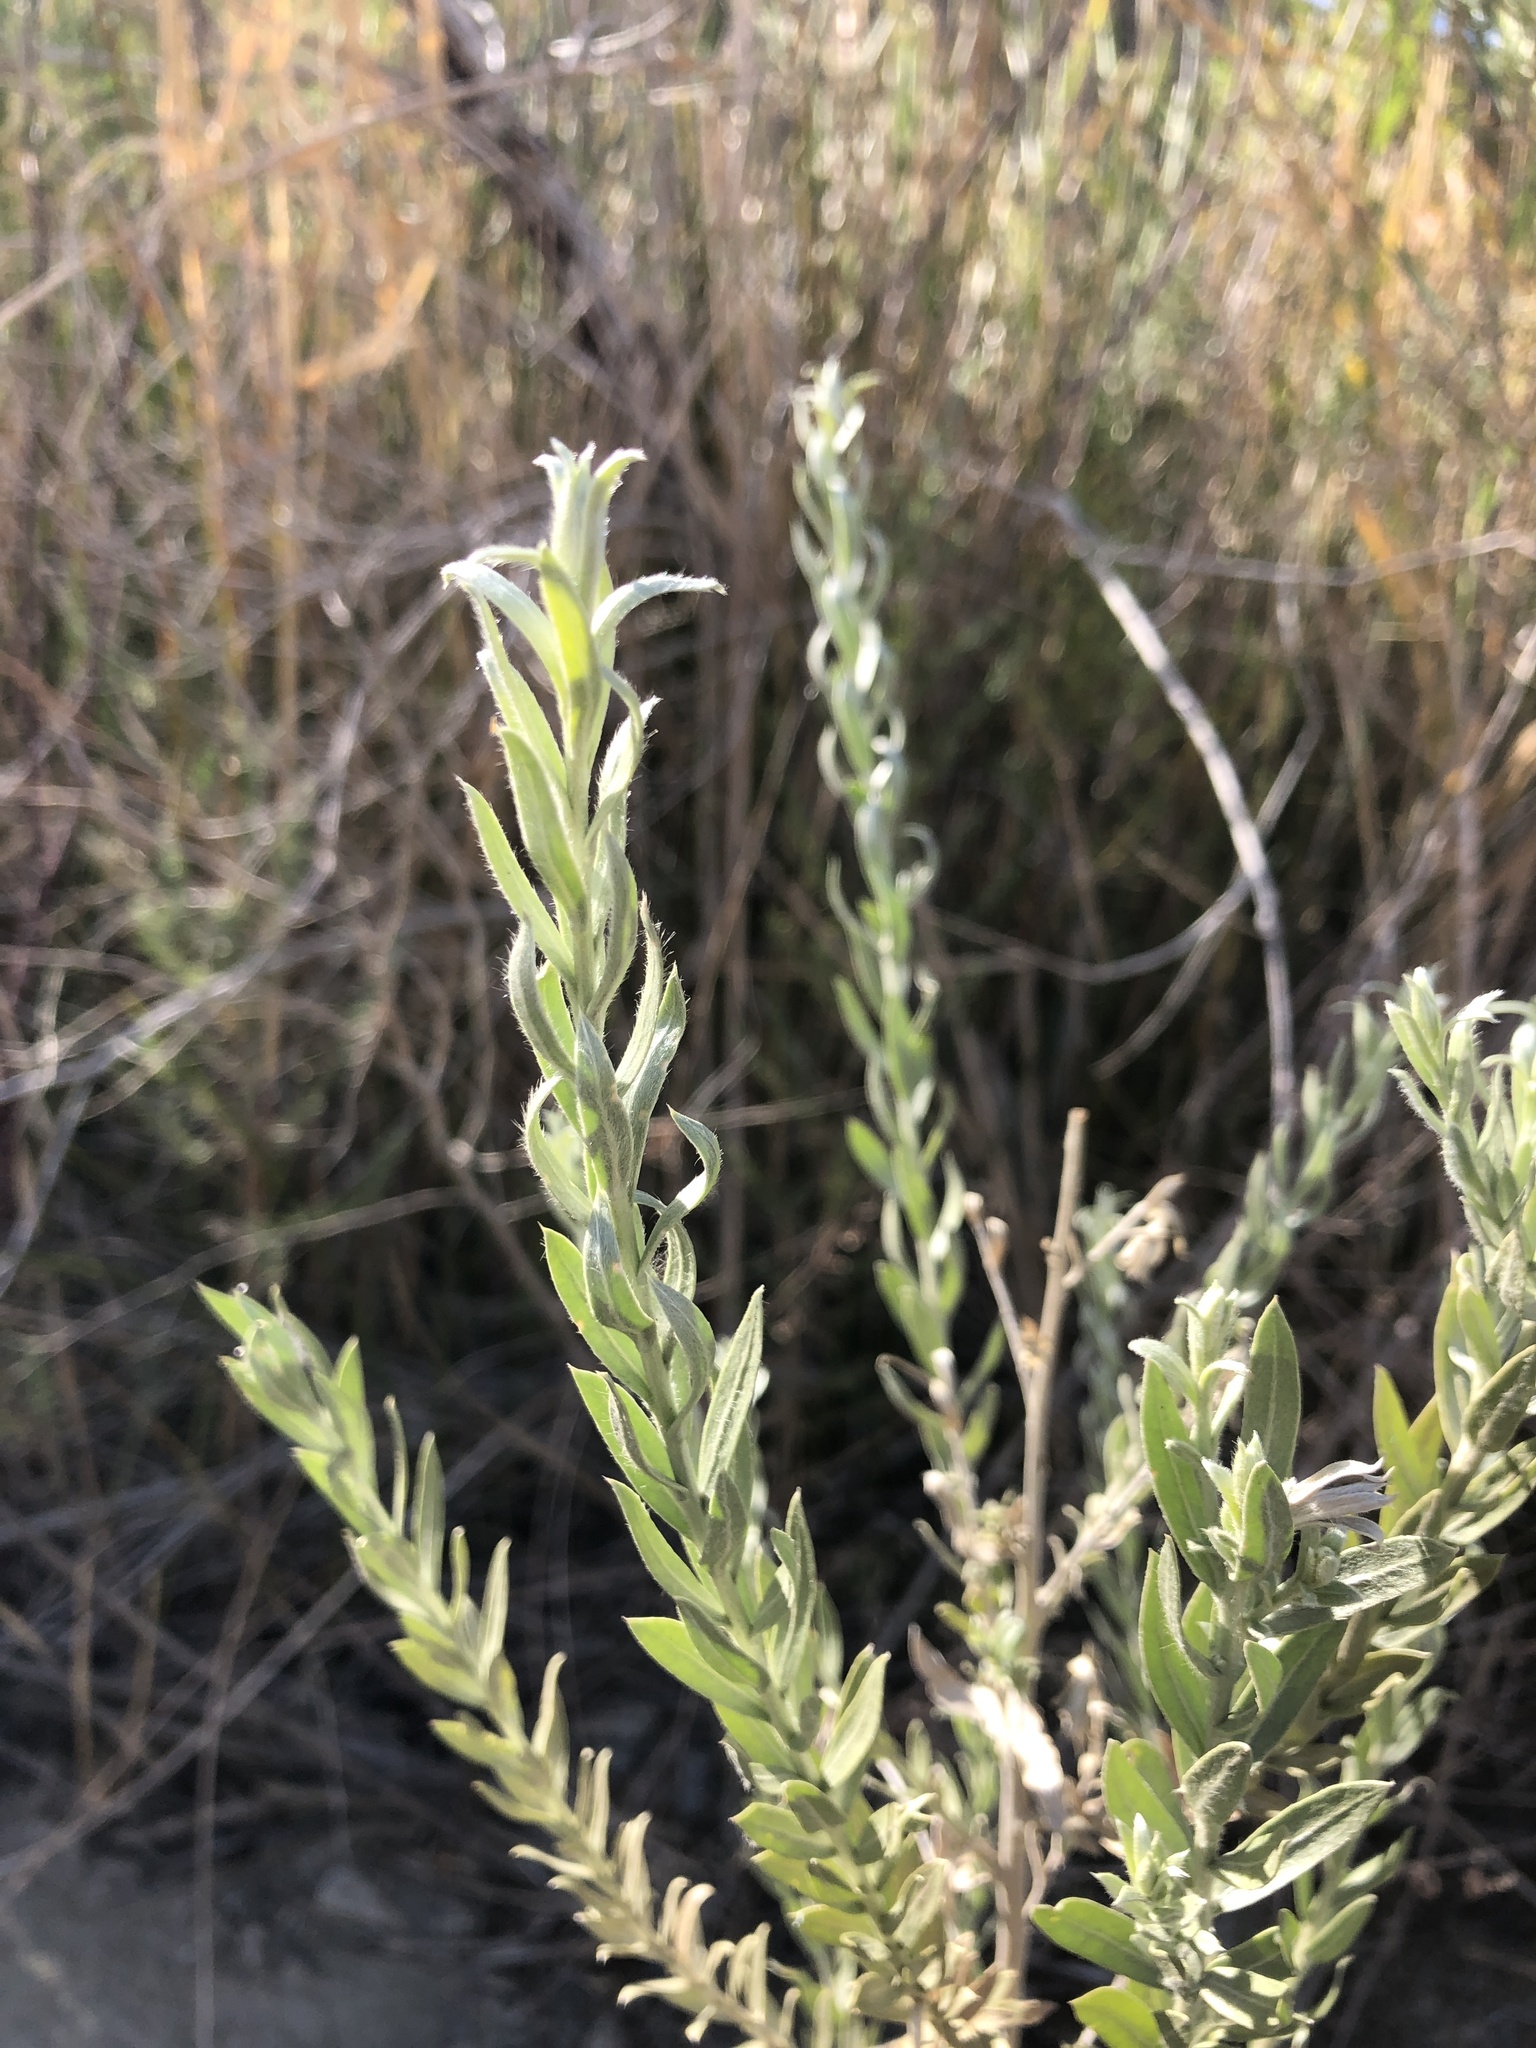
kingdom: Plantae
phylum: Tracheophyta
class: Magnoliopsida
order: Asterales
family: Asteraceae
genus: Pluchea
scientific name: Pluchea sericea
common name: Arrow-weed
